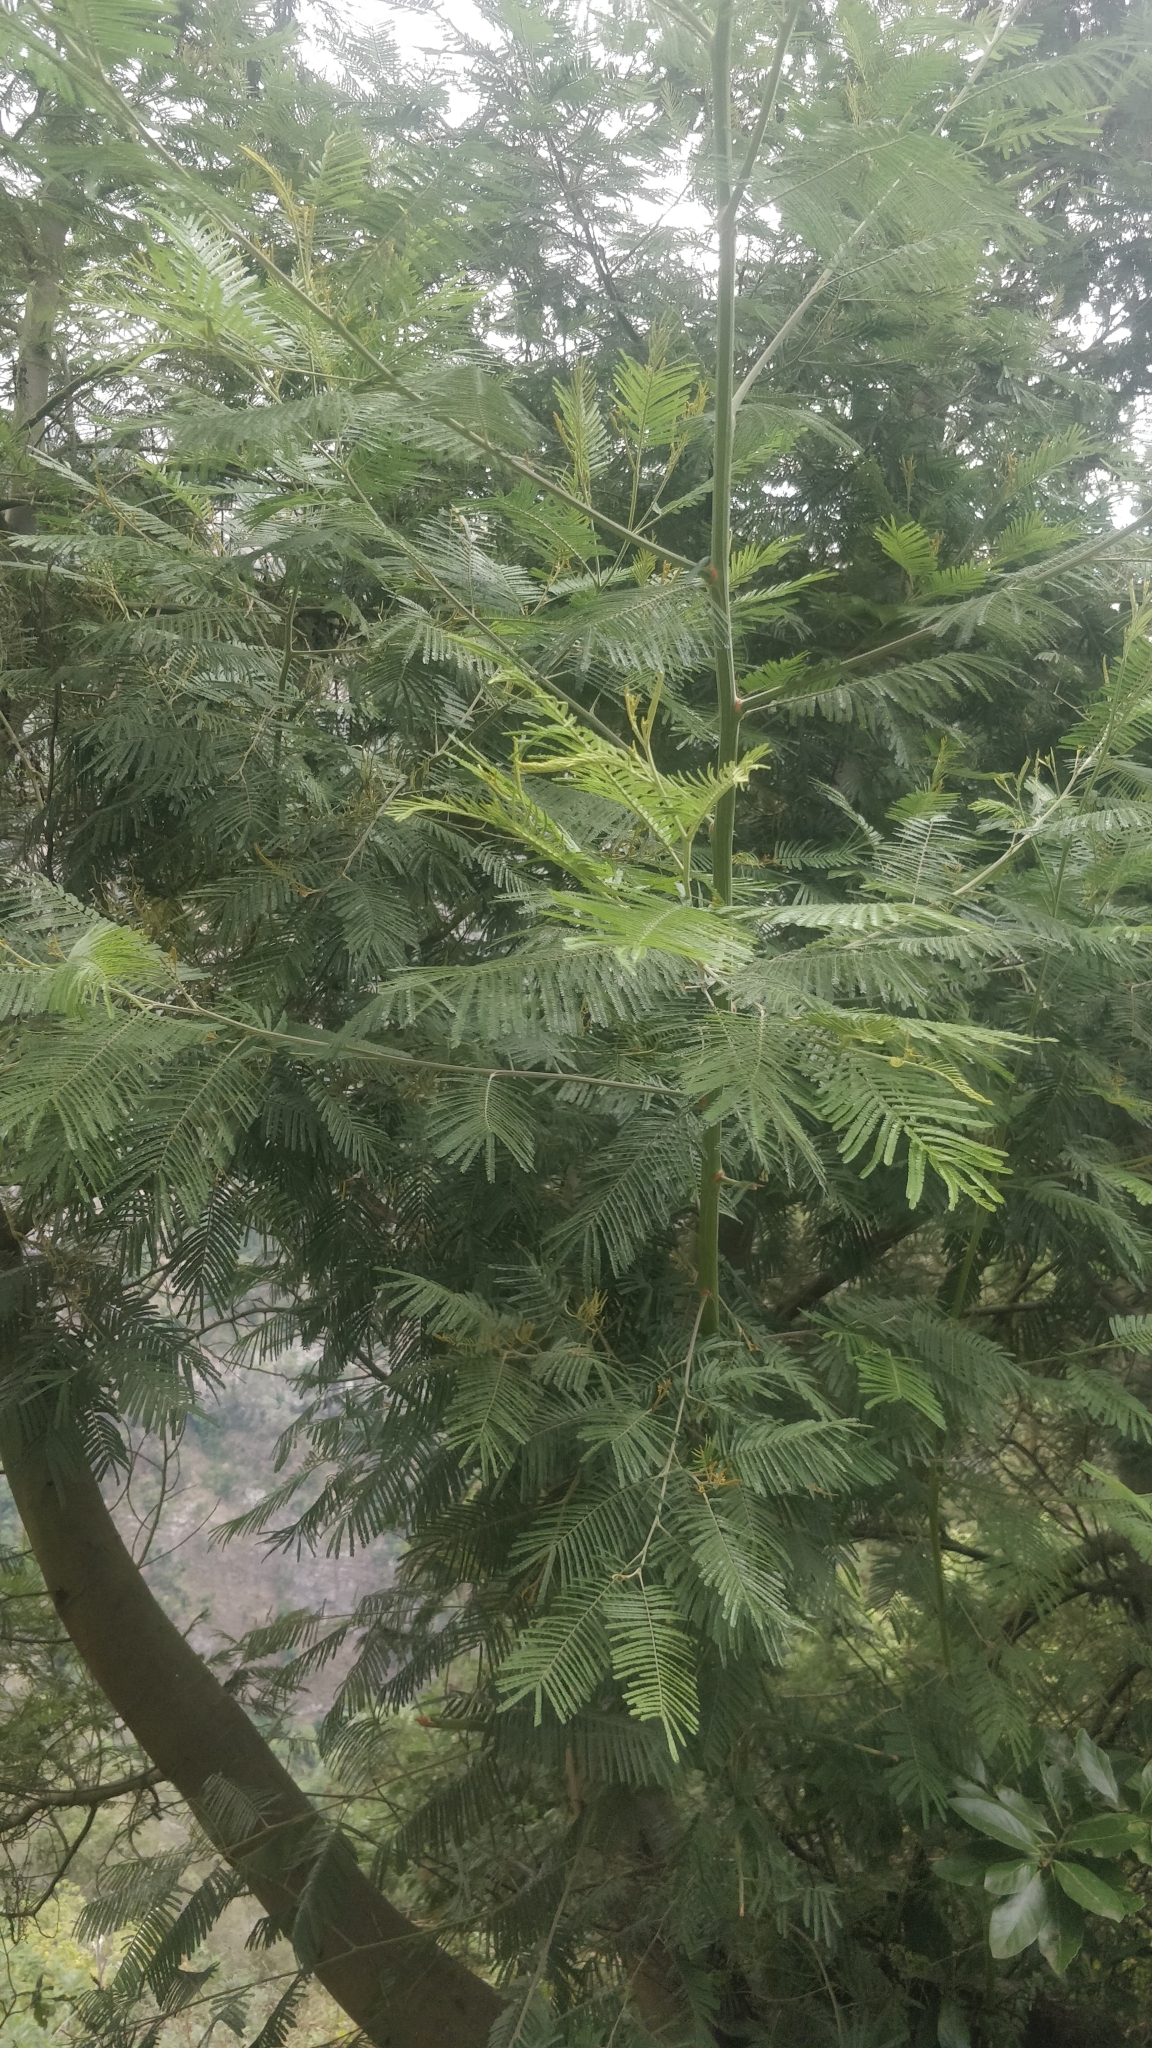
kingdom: Plantae
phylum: Tracheophyta
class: Magnoliopsida
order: Fabales
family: Fabaceae
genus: Acacia
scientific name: Acacia mearnsii
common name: Black wattle
